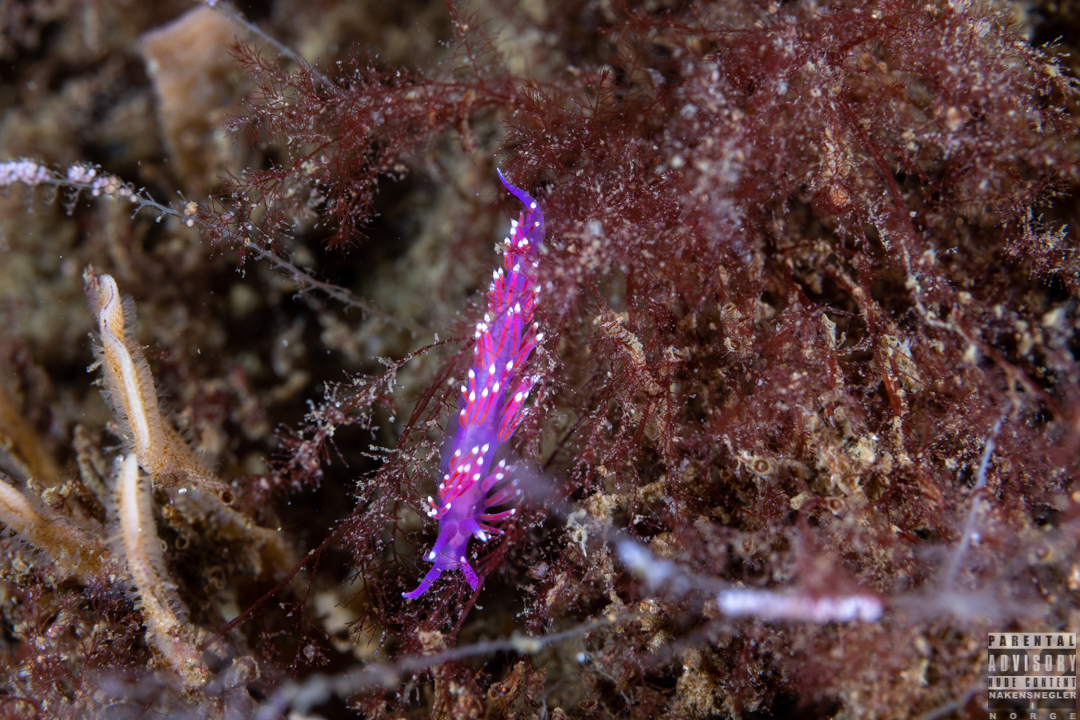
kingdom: Animalia
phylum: Mollusca
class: Gastropoda
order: Nudibranchia
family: Flabellinidae
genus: Edmundsella
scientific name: Edmundsella pedata
